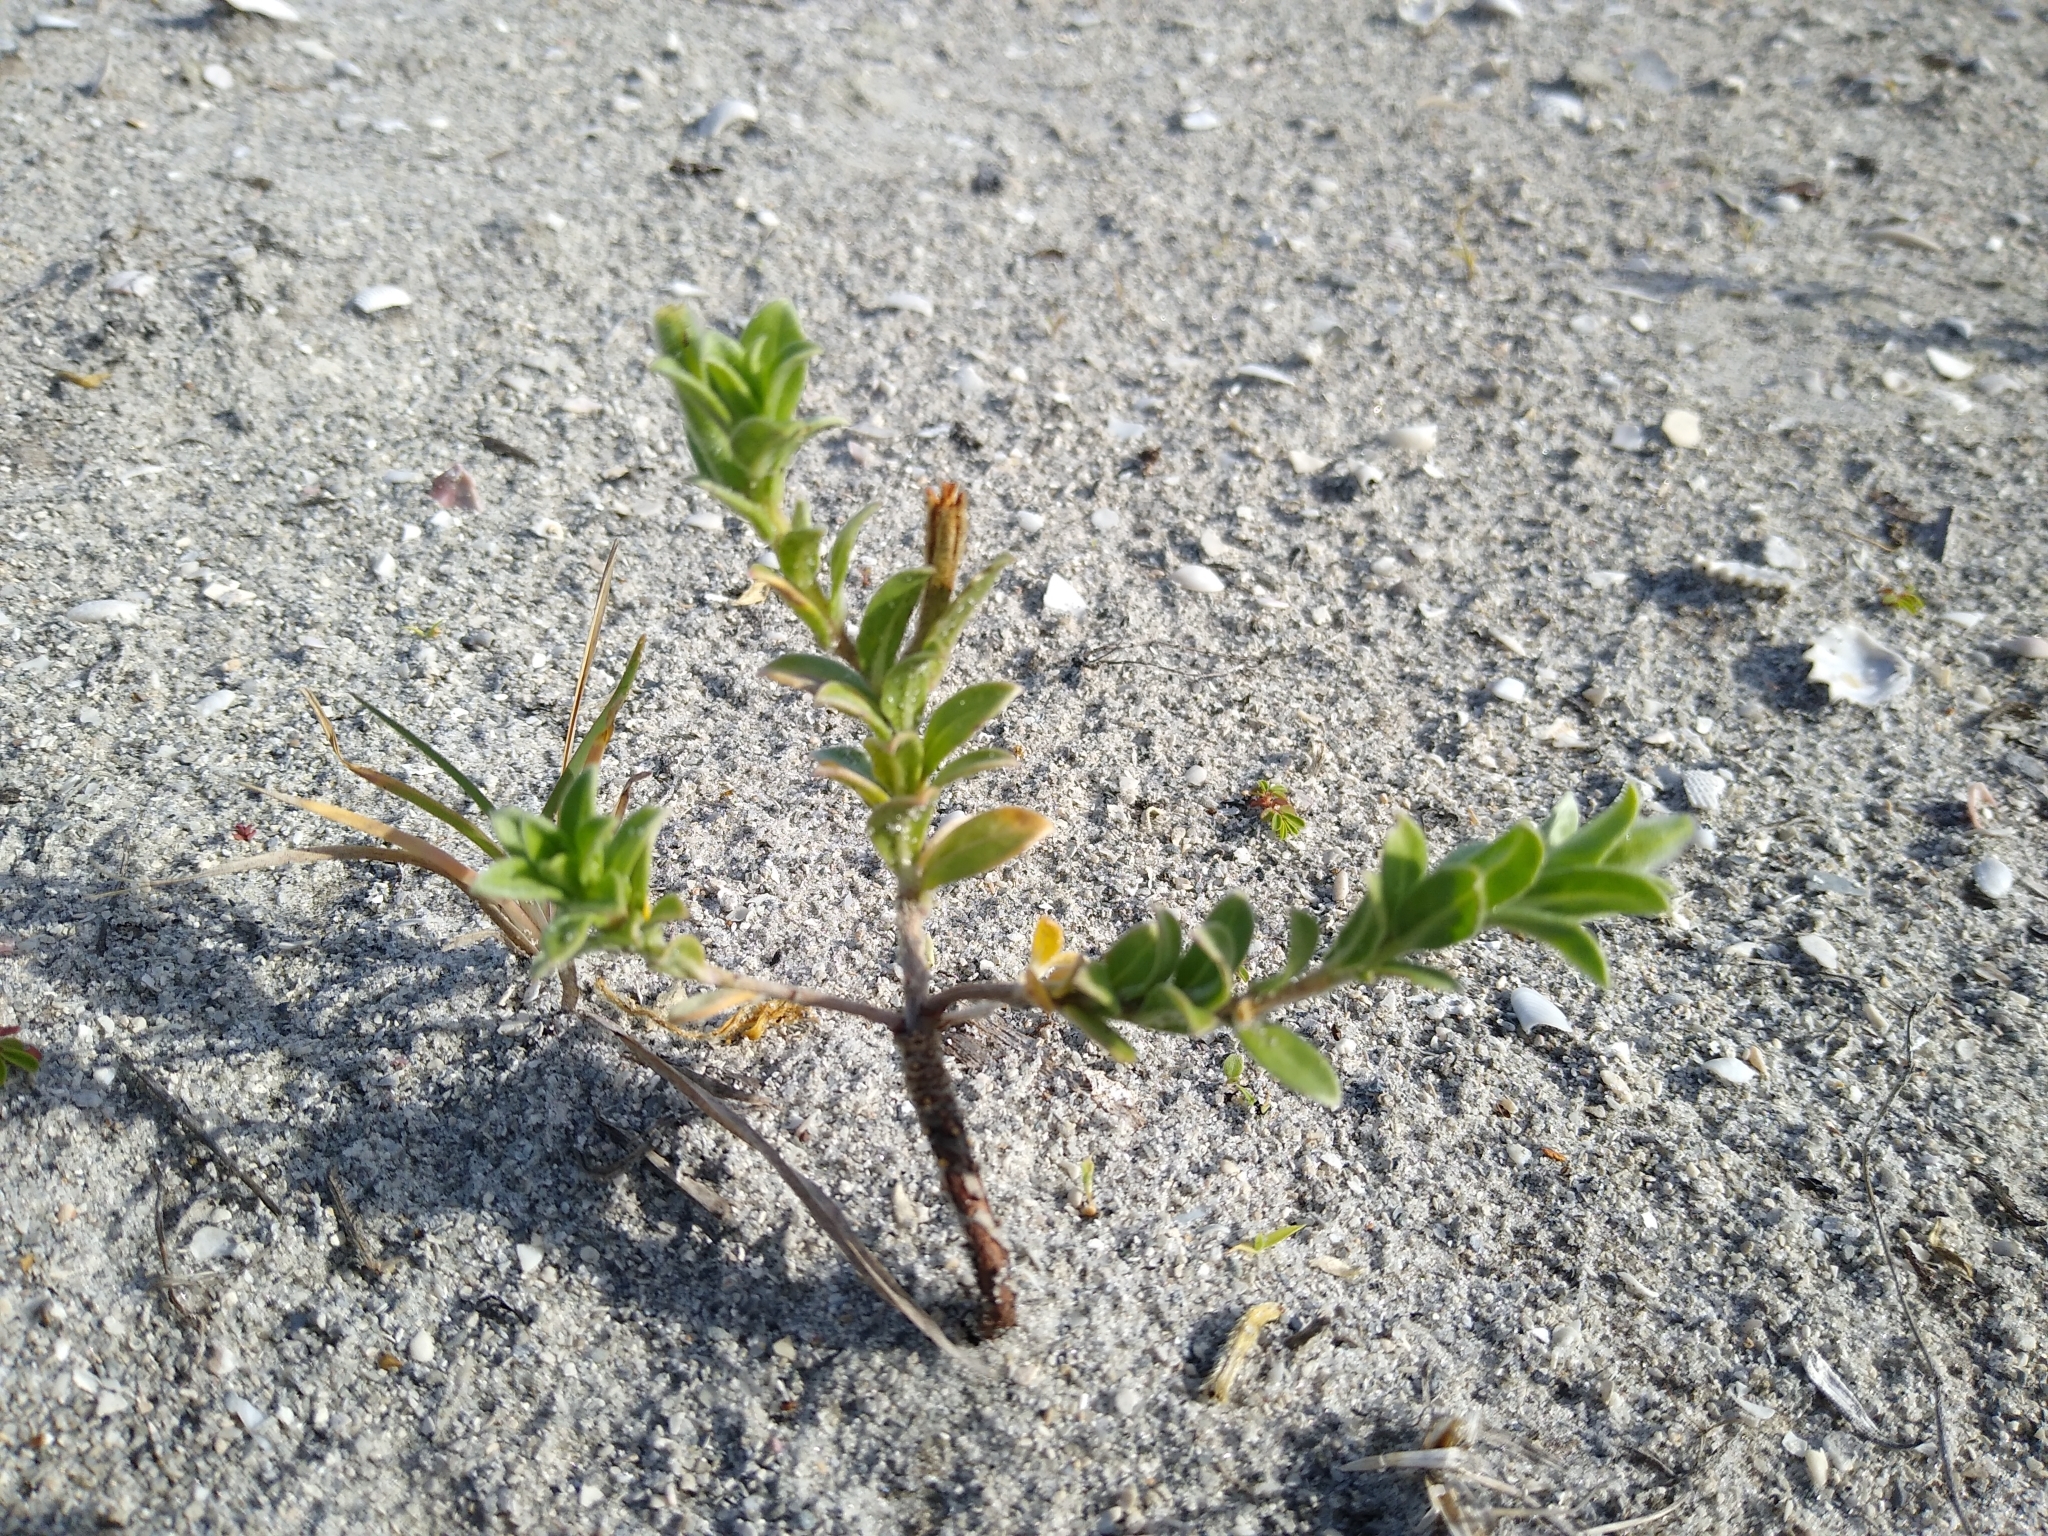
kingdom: Plantae
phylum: Tracheophyta
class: Magnoliopsida
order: Myrtales
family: Onagraceae
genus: Oenothera
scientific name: Oenothera humifusa
